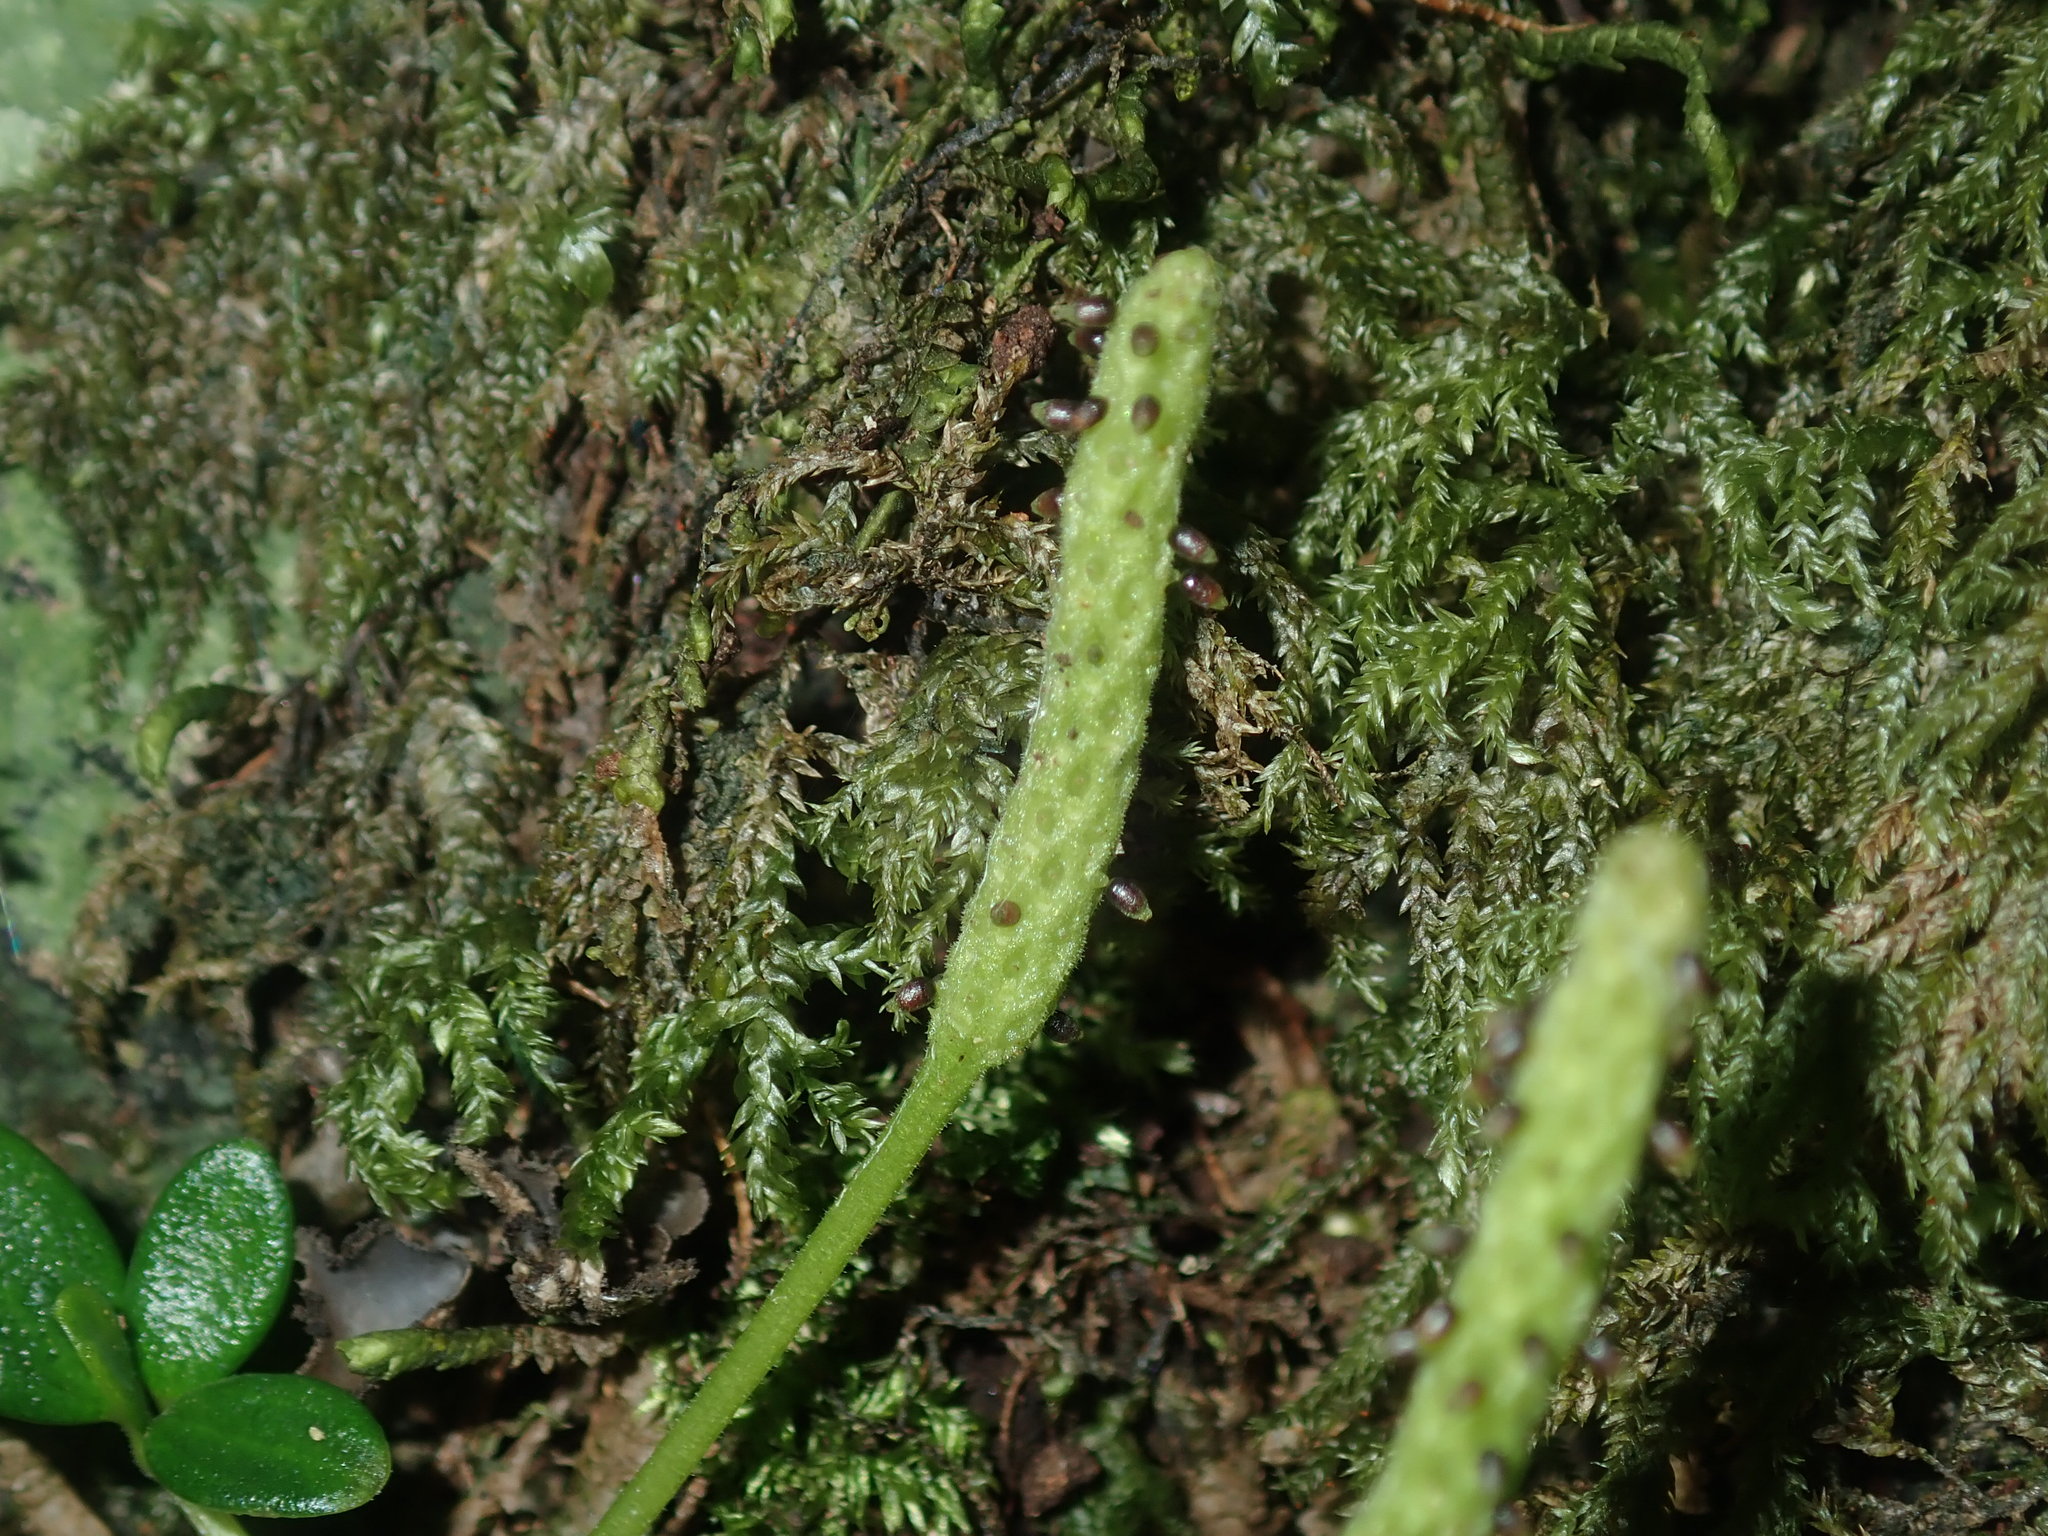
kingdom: Plantae
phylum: Tracheophyta
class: Magnoliopsida
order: Piperales
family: Piperaceae
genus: Peperomia
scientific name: Peperomia tetraphylla
